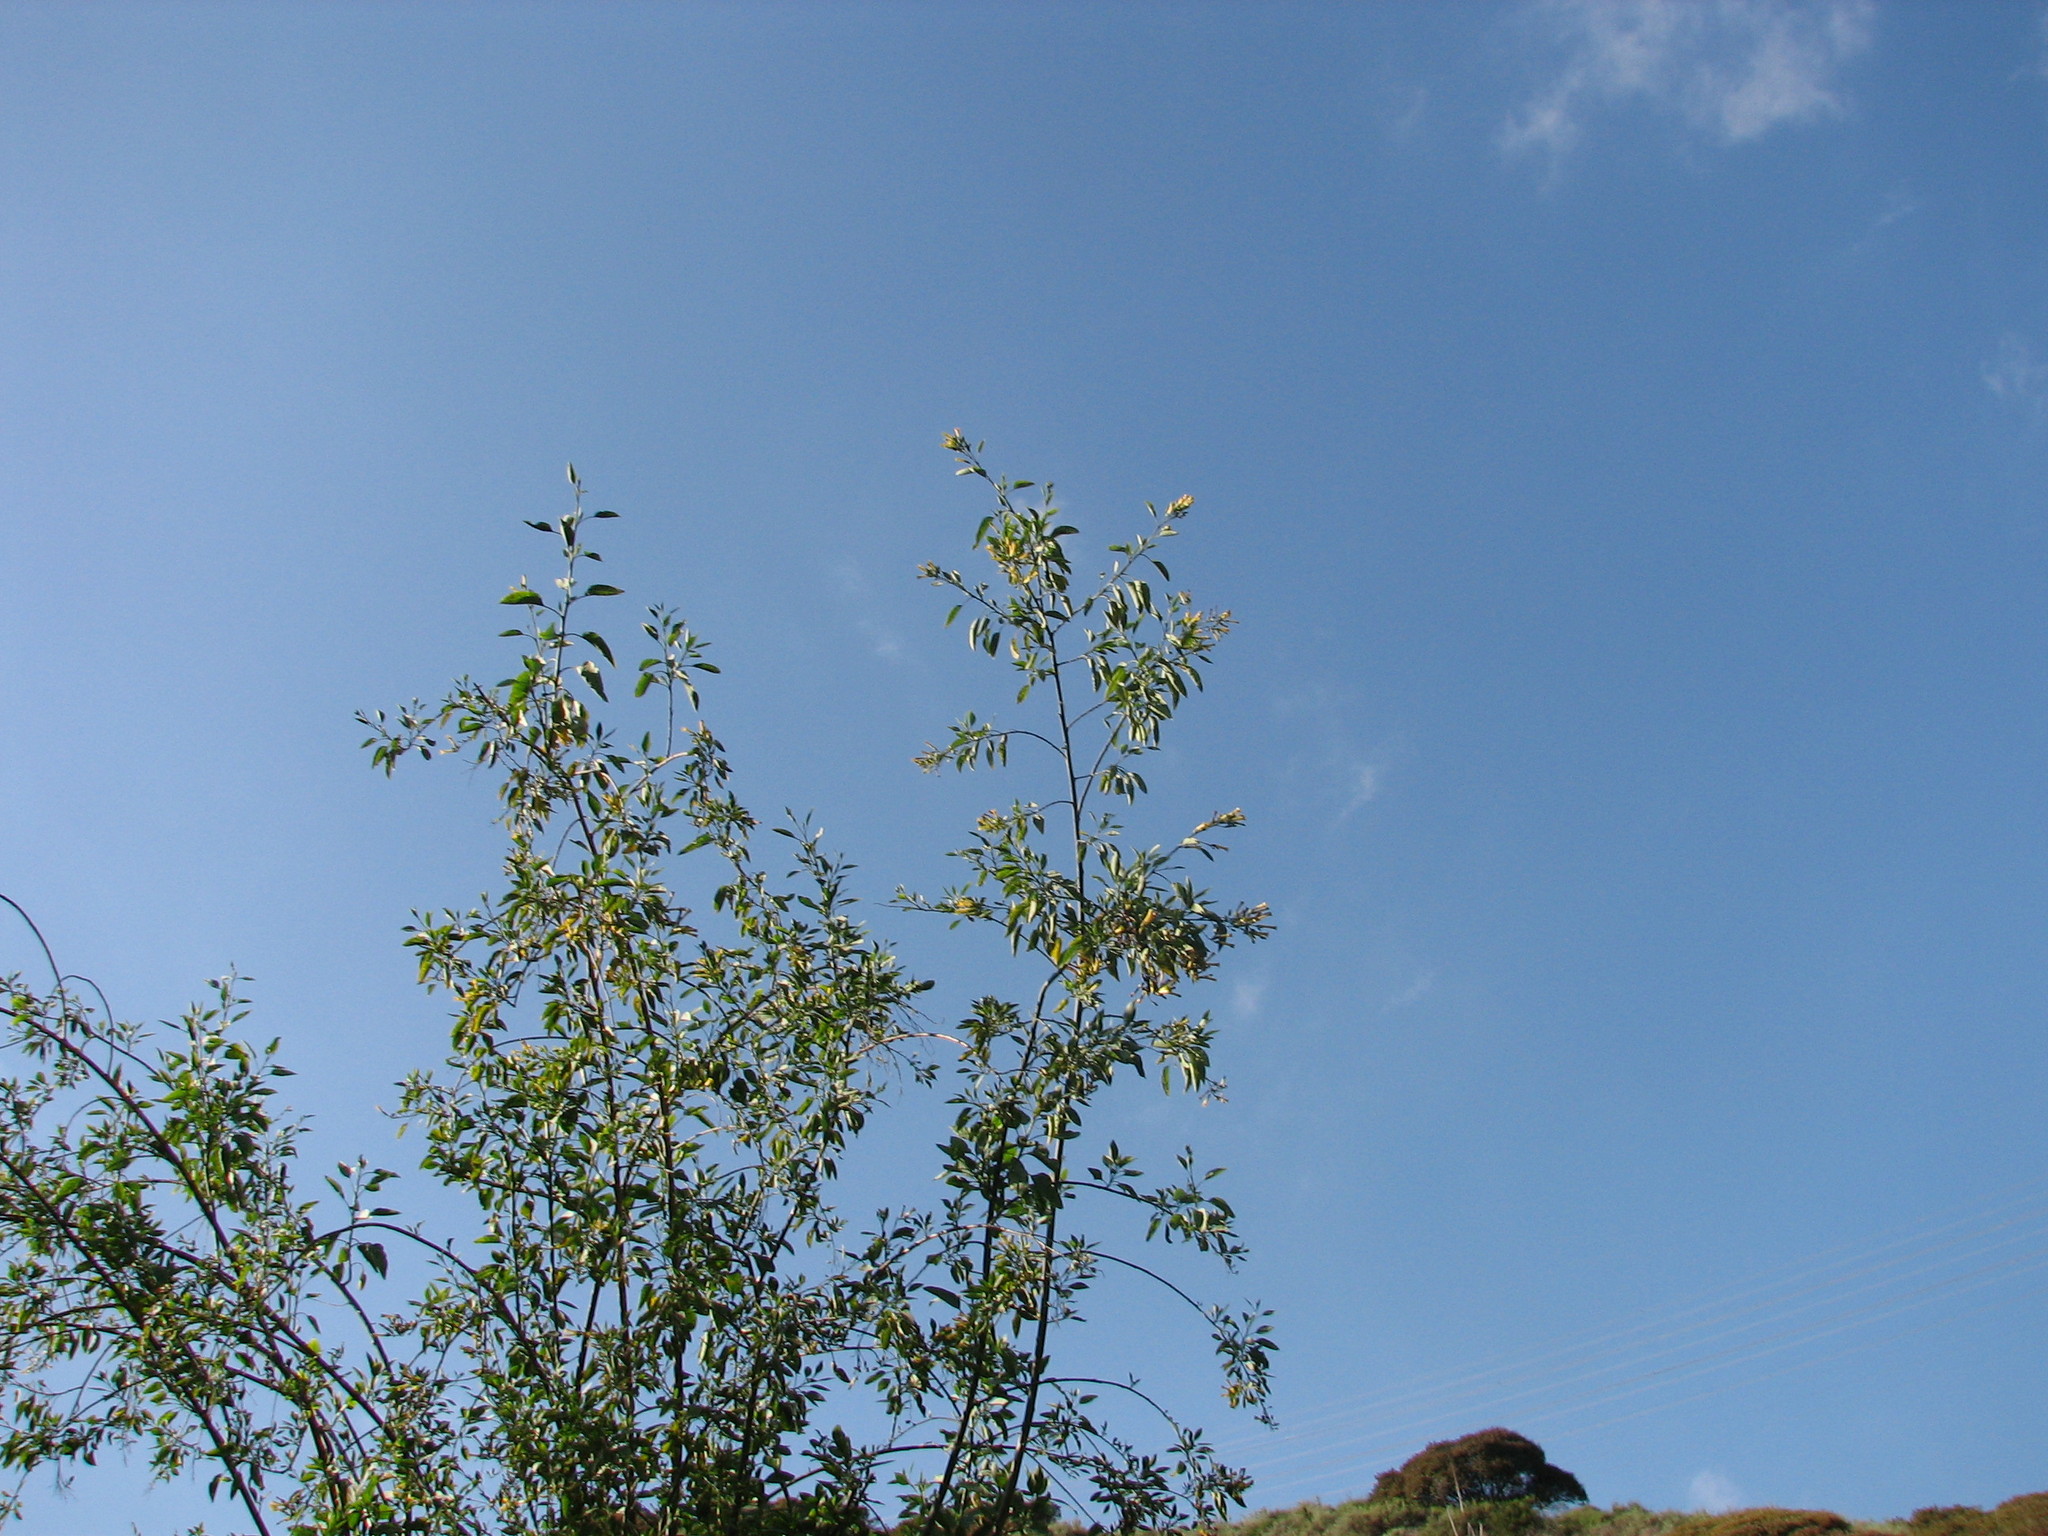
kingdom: Plantae
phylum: Tracheophyta
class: Magnoliopsida
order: Solanales
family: Solanaceae
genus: Nicotiana
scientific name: Nicotiana glauca
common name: Tree tobacco
